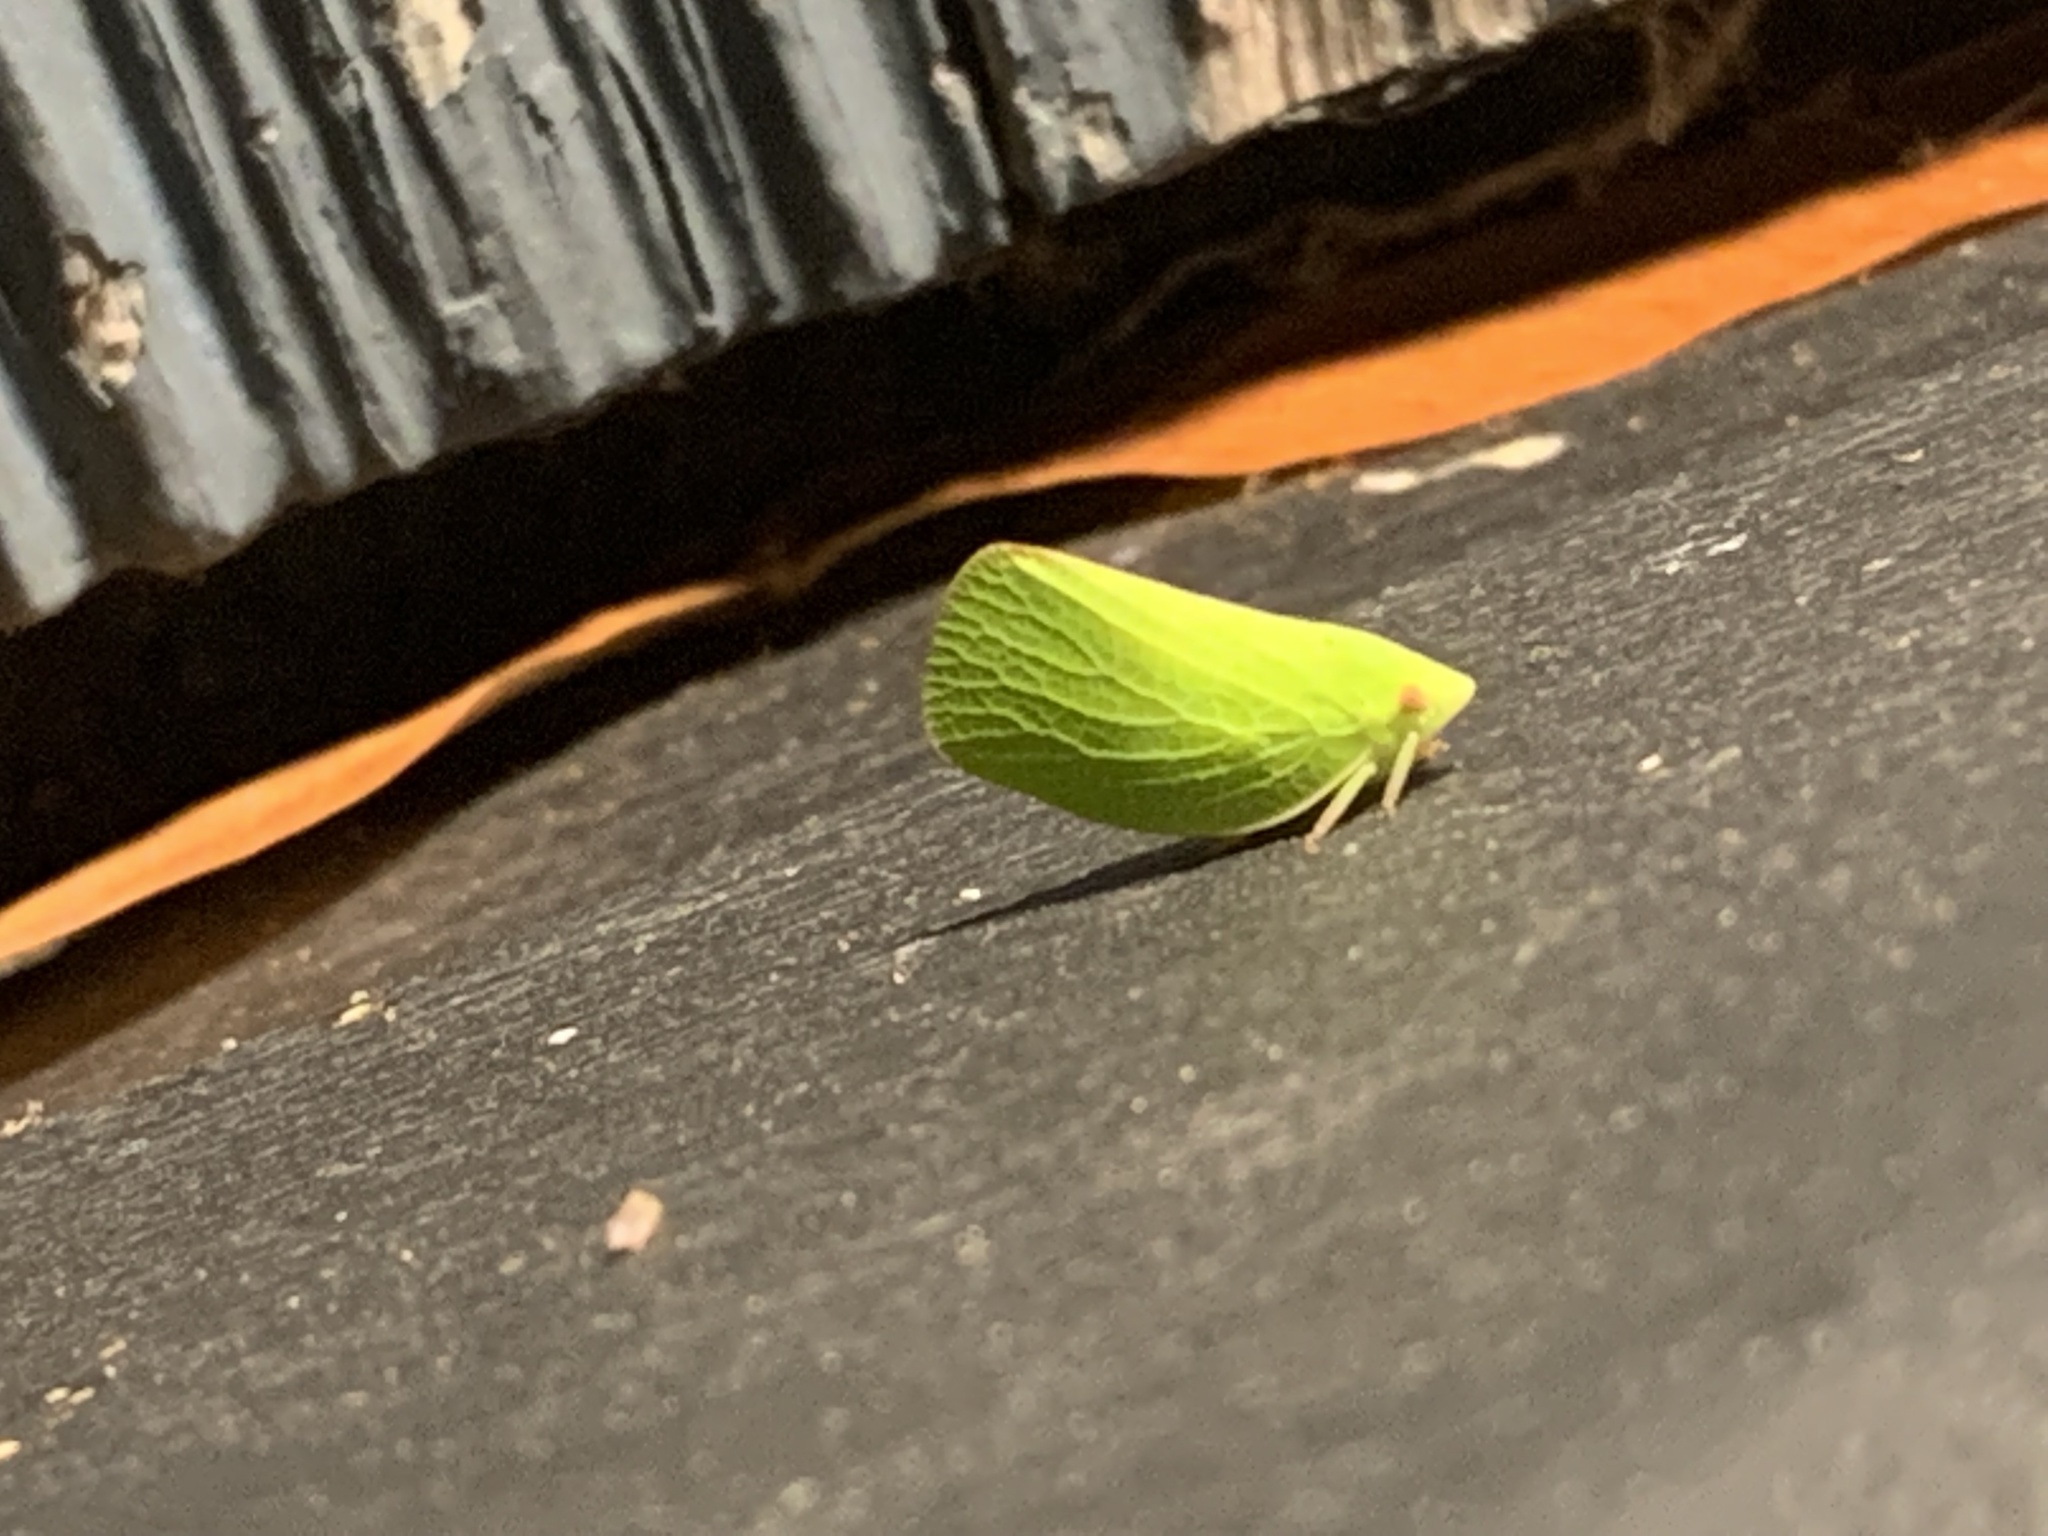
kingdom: Animalia
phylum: Arthropoda
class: Insecta
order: Hemiptera
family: Acanaloniidae
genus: Acanalonia
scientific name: Acanalonia conica
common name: Green cone-headed planthopper
